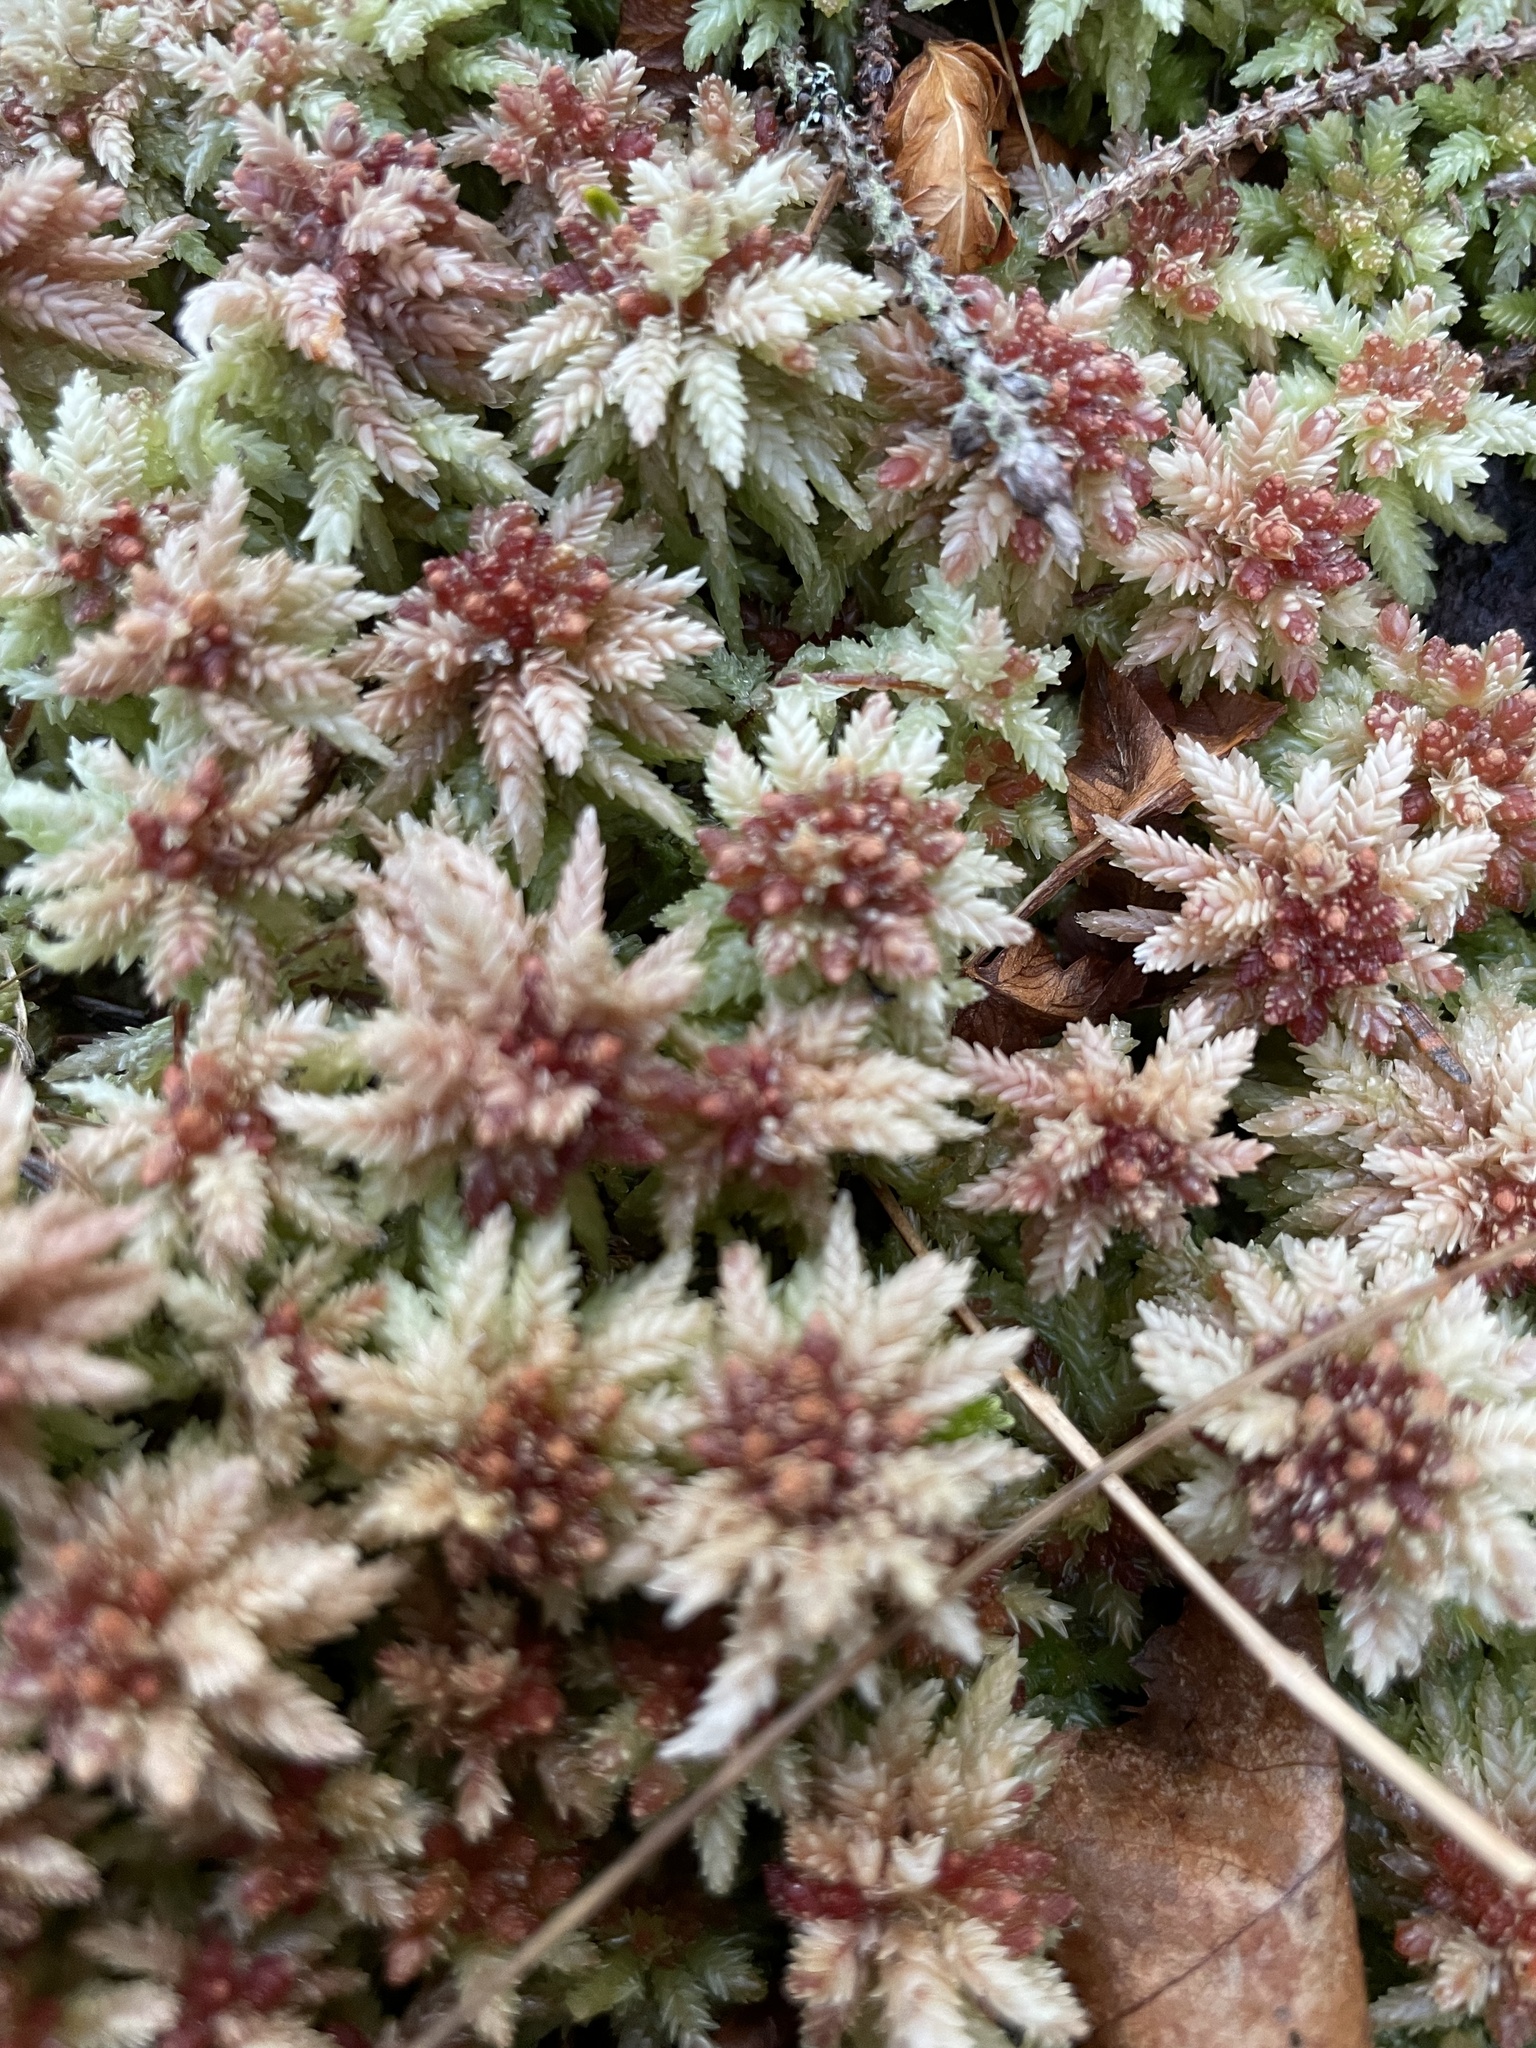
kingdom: Plantae
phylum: Bryophyta
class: Sphagnopsida
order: Sphagnales
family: Sphagnaceae
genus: Sphagnum
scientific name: Sphagnum divinum
